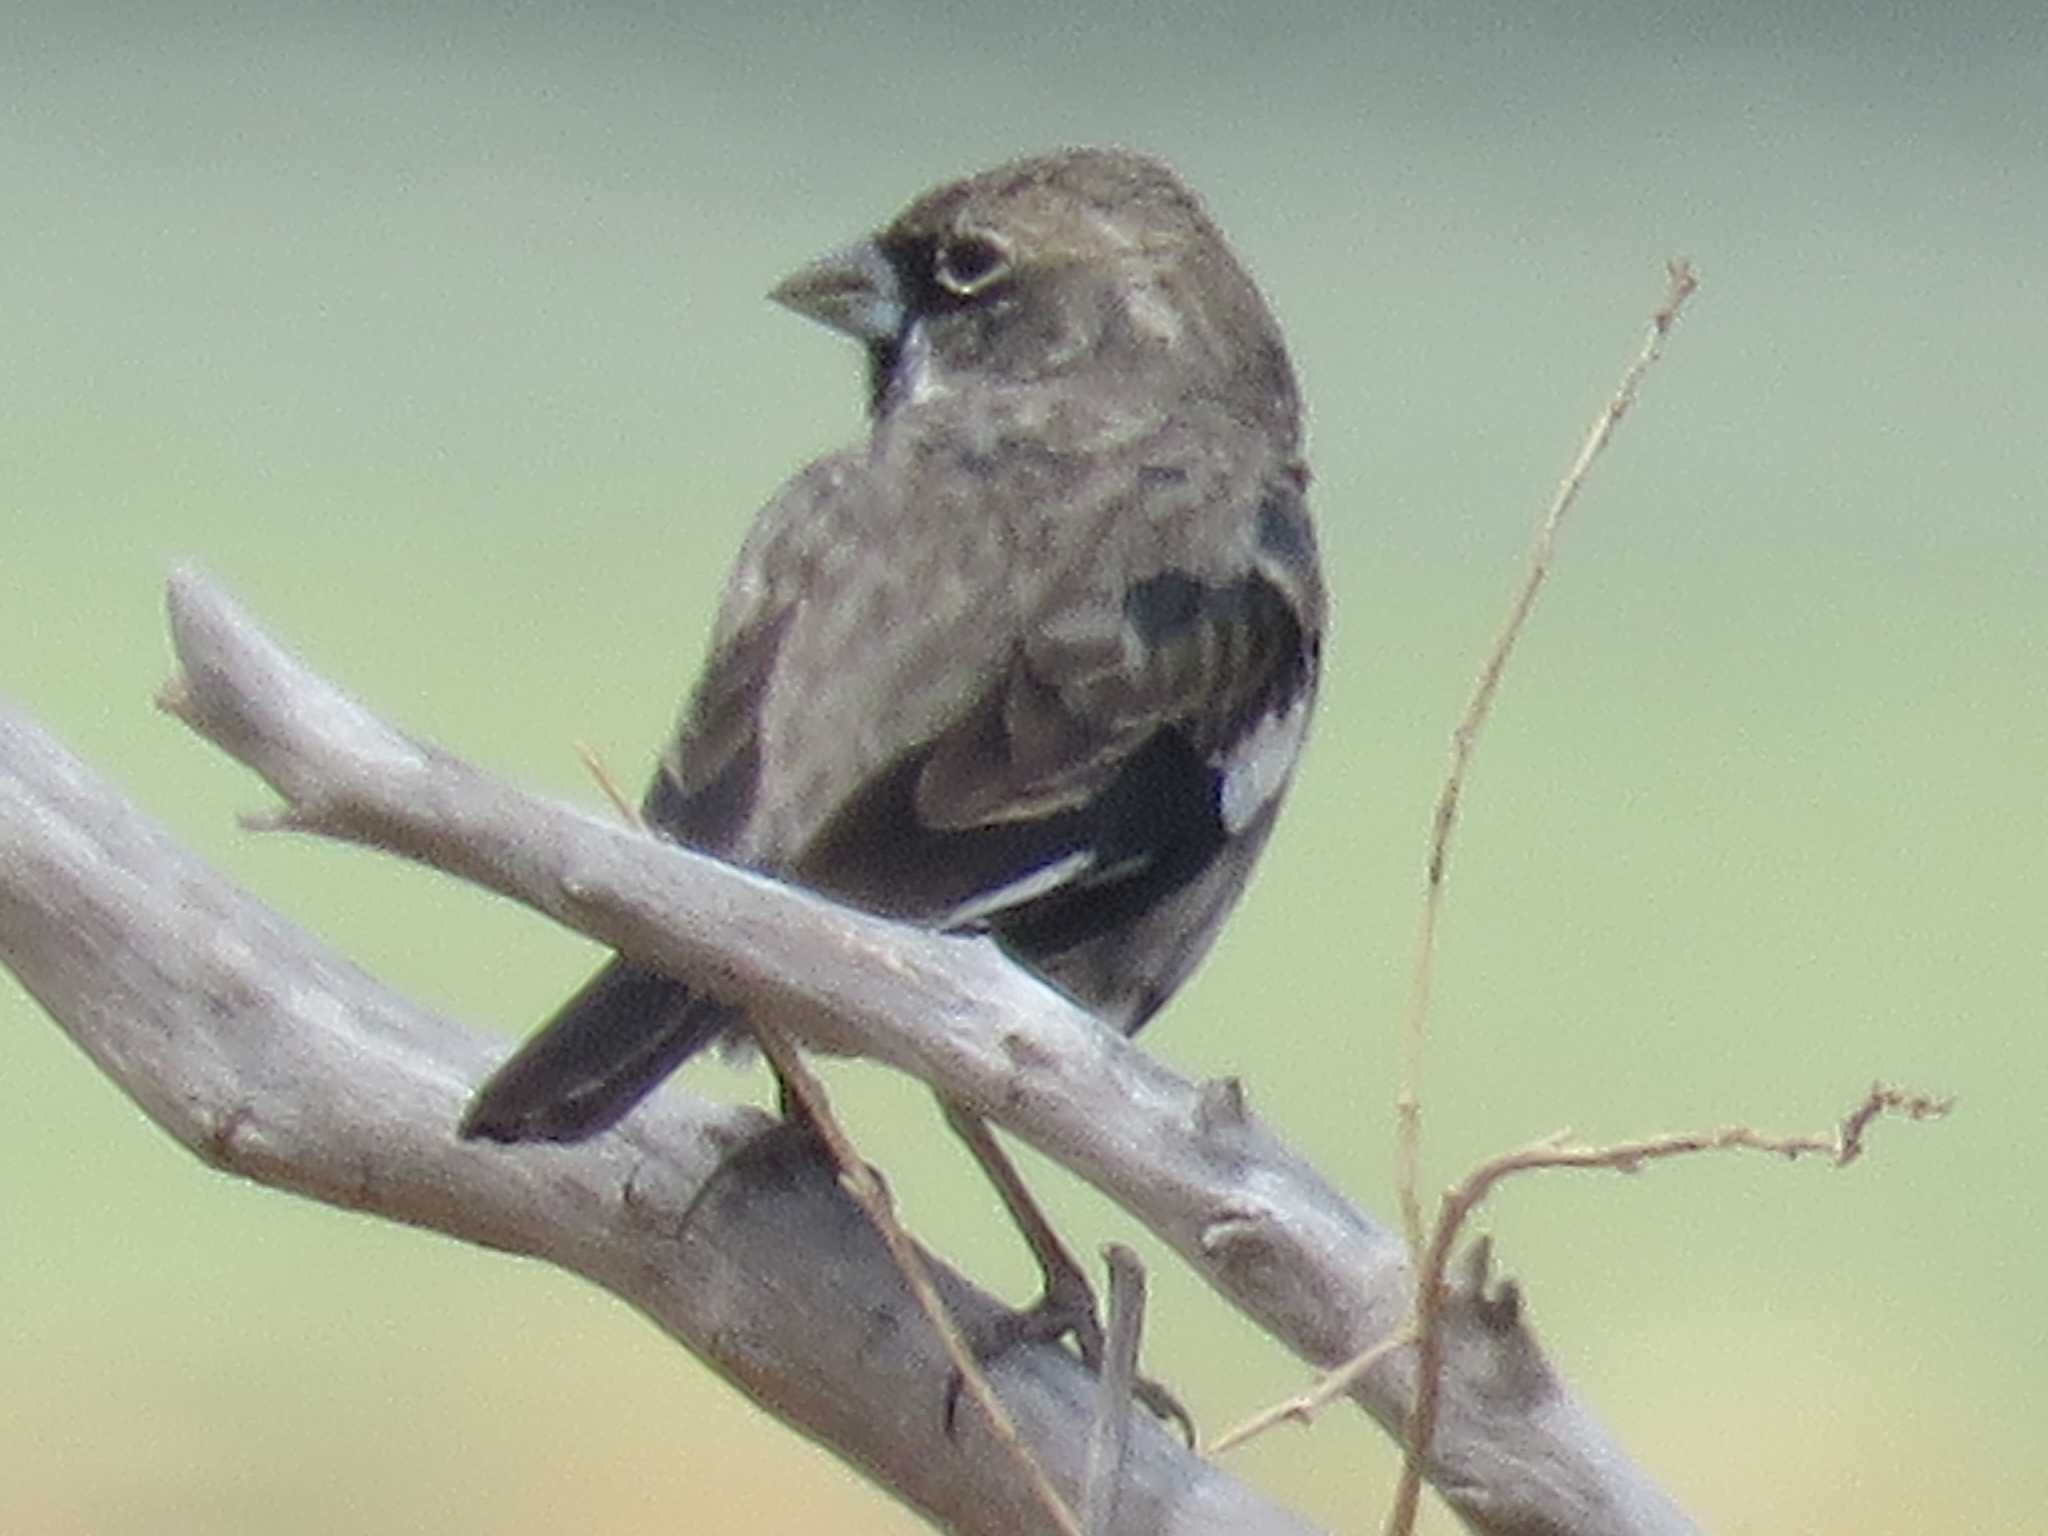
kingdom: Animalia
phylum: Chordata
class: Aves
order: Passeriformes
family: Passerellidae
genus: Calamospiza
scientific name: Calamospiza melanocorys
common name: Lark bunting
